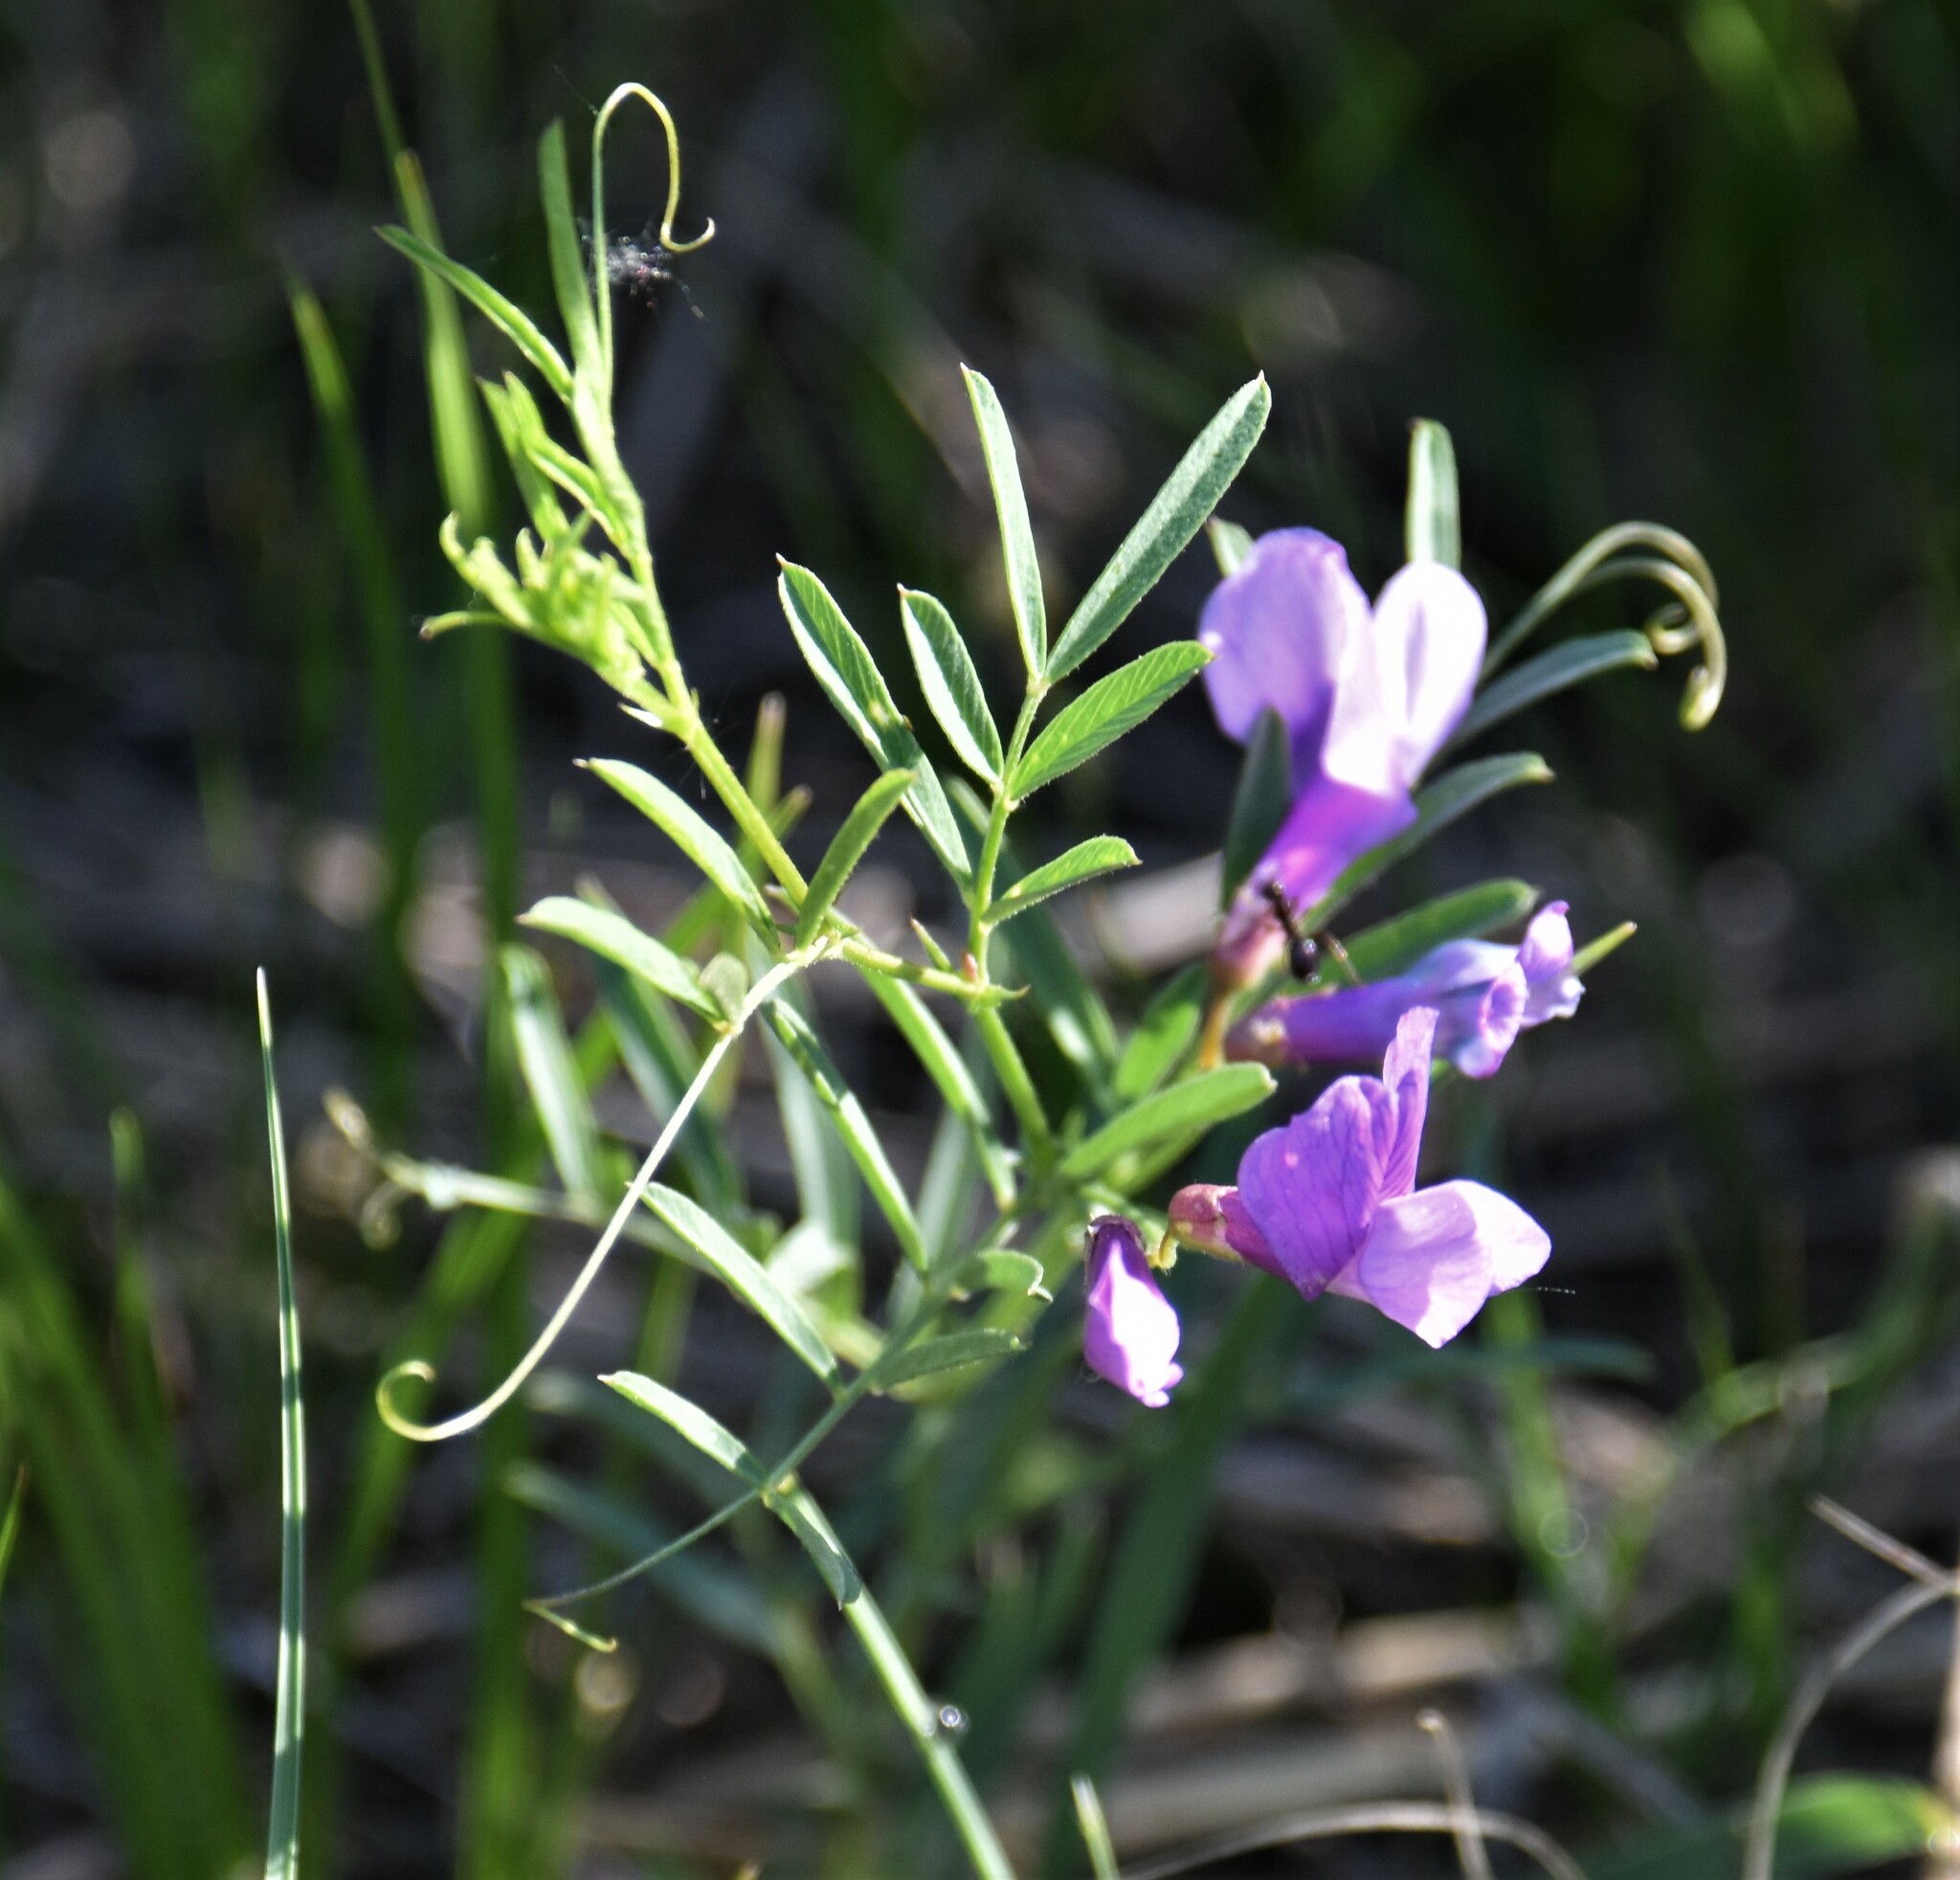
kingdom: Plantae
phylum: Tracheophyta
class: Magnoliopsida
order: Fabales
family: Fabaceae
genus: Vicia
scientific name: Vicia americana
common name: American vetch
